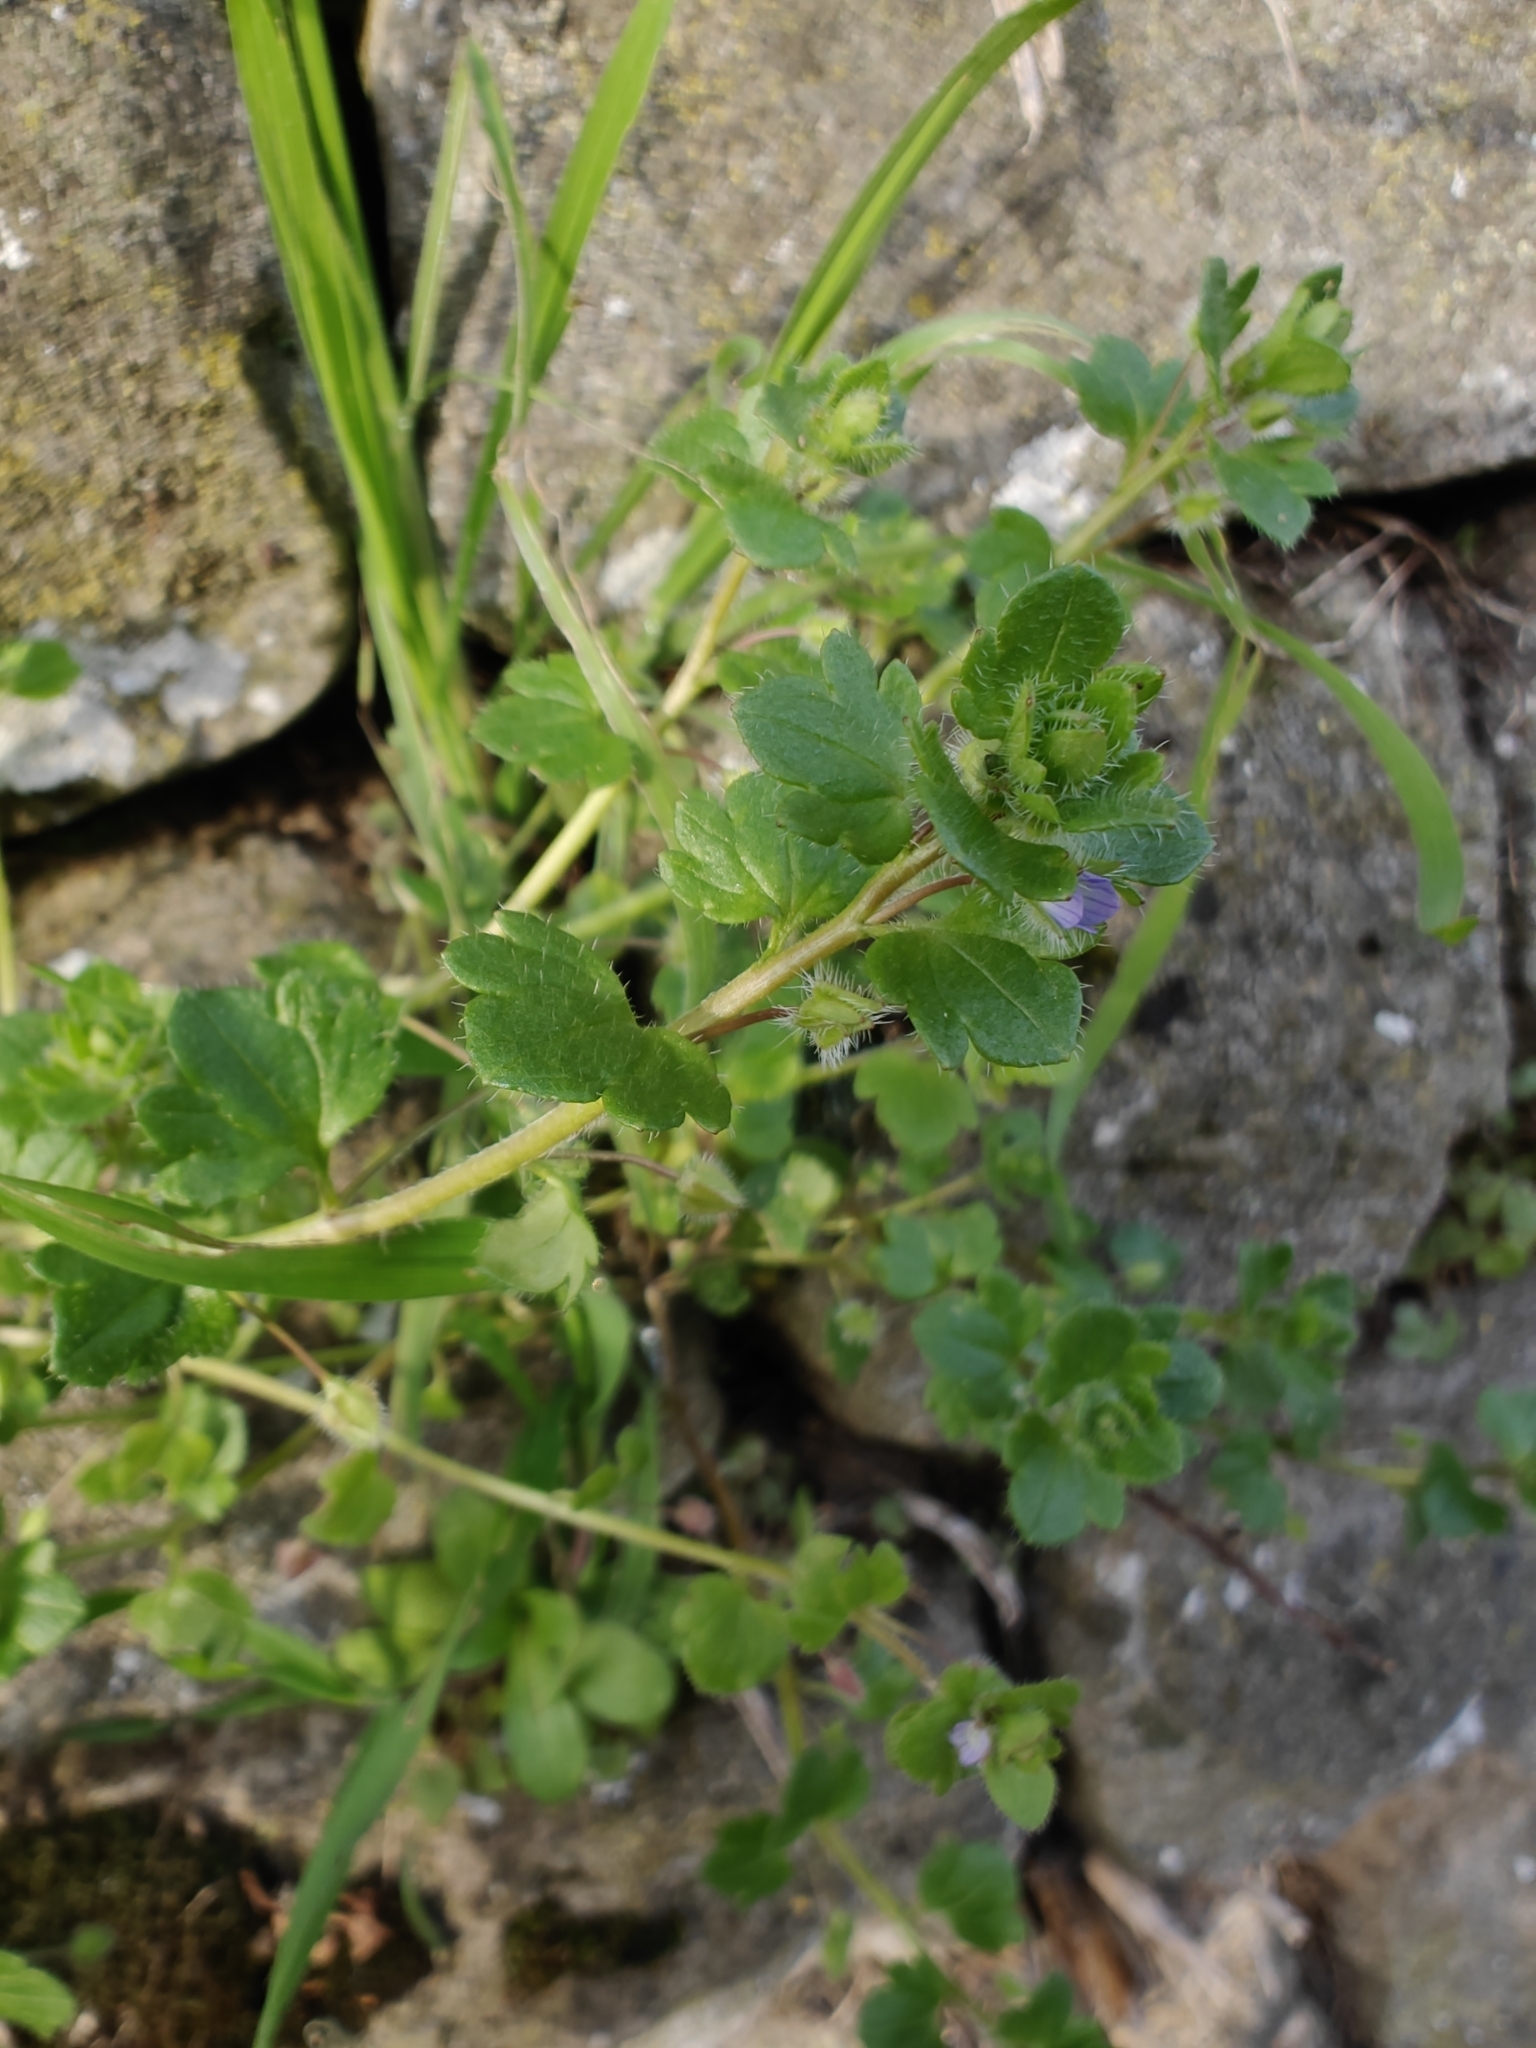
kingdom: Plantae
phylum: Tracheophyta
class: Magnoliopsida
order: Lamiales
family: Plantaginaceae
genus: Veronica
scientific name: Veronica hederifolia
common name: Ivy-leaved speedwell
